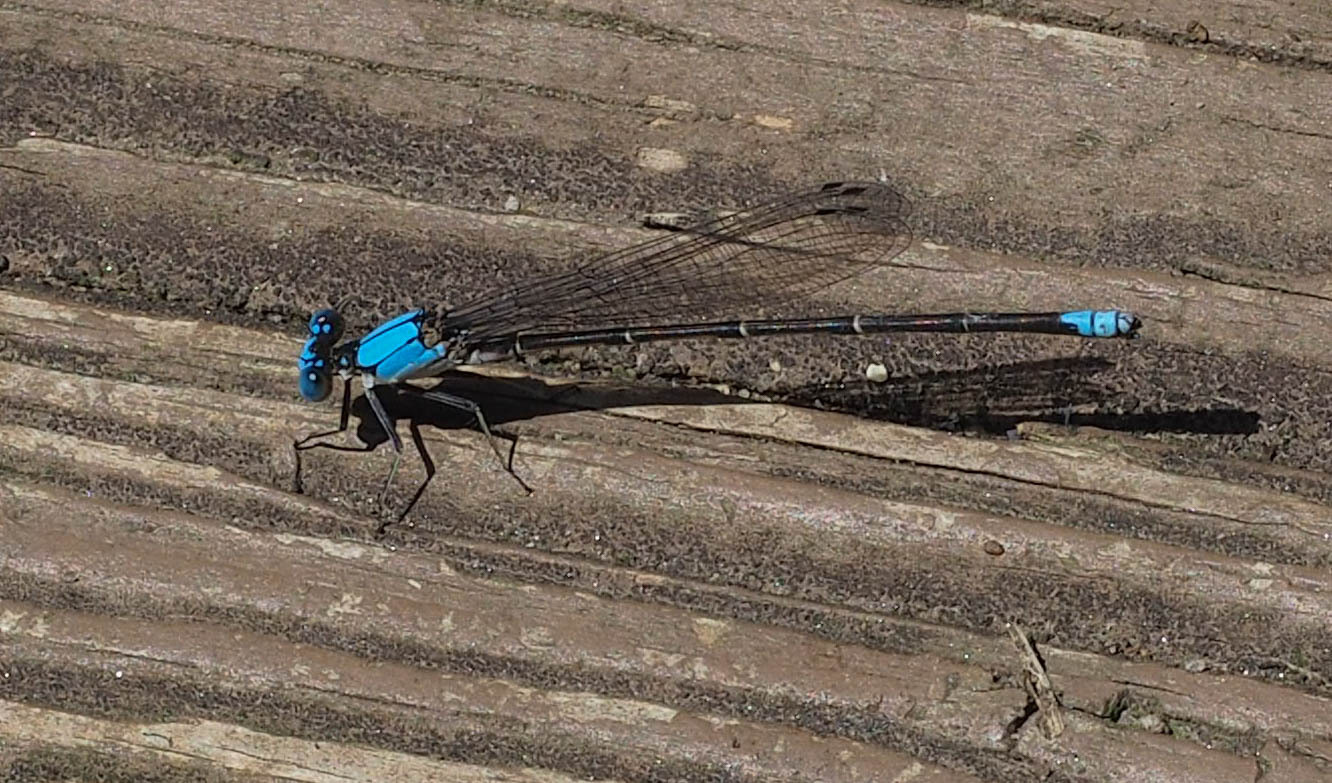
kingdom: Animalia
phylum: Arthropoda
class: Insecta
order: Odonata
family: Coenagrionidae
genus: Argia
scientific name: Argia apicalis
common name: Blue-fronted dancer
